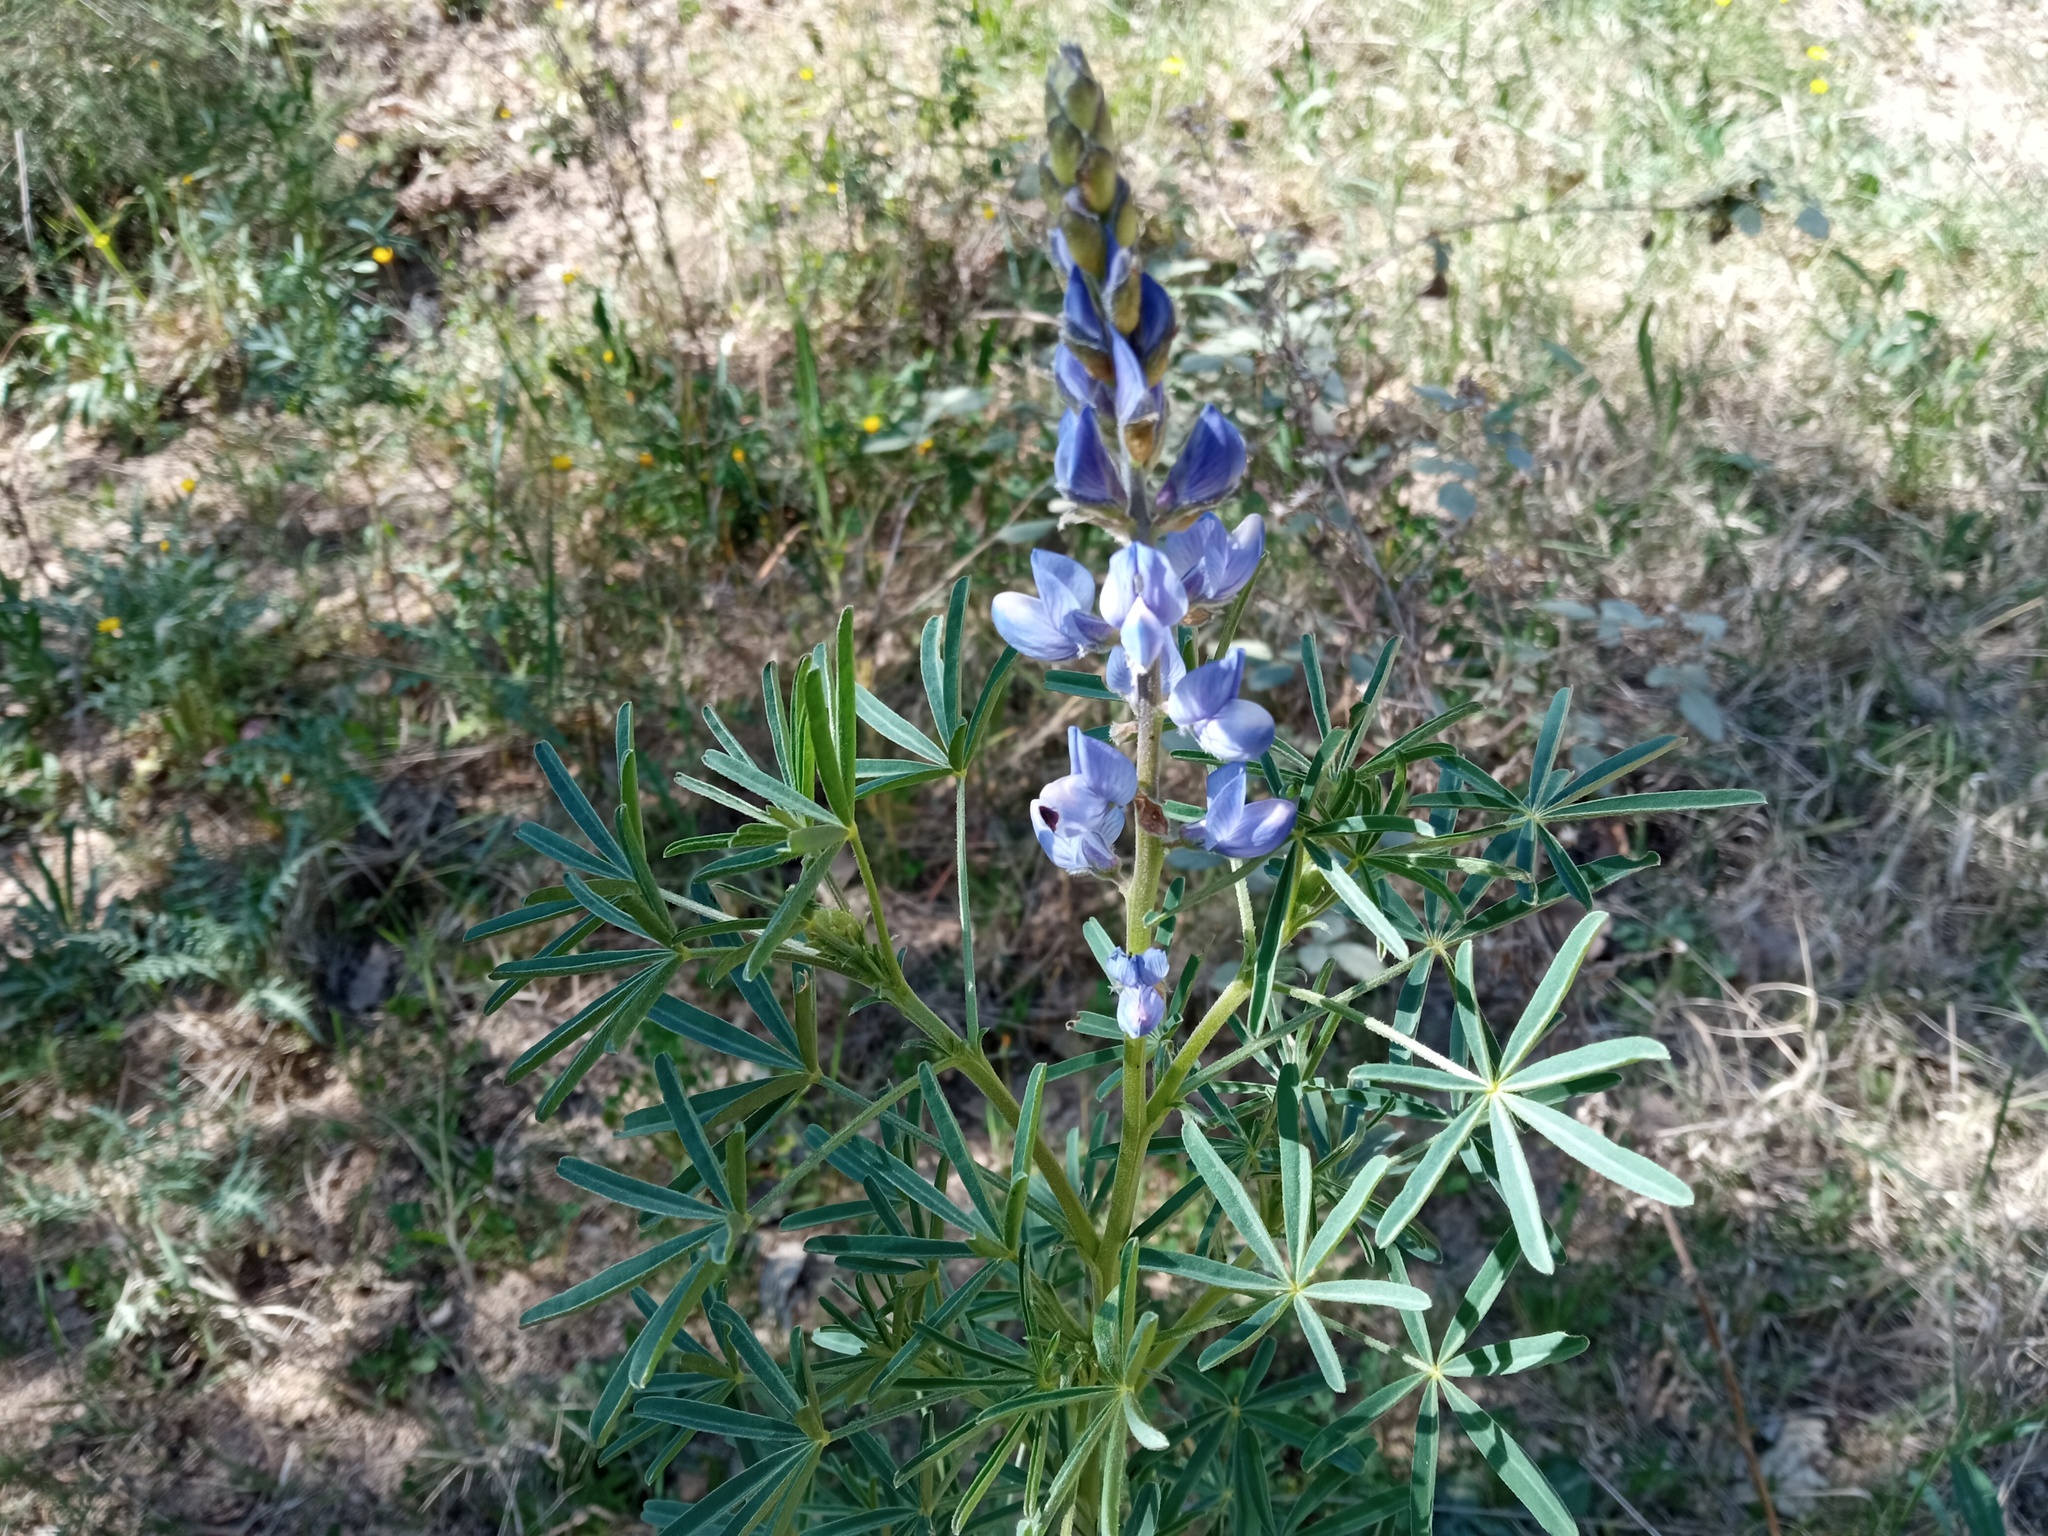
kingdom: Plantae
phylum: Tracheophyta
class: Magnoliopsida
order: Fabales
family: Fabaceae
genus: Lupinus
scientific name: Lupinus angustifolius
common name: Narrow-leaved lupin
